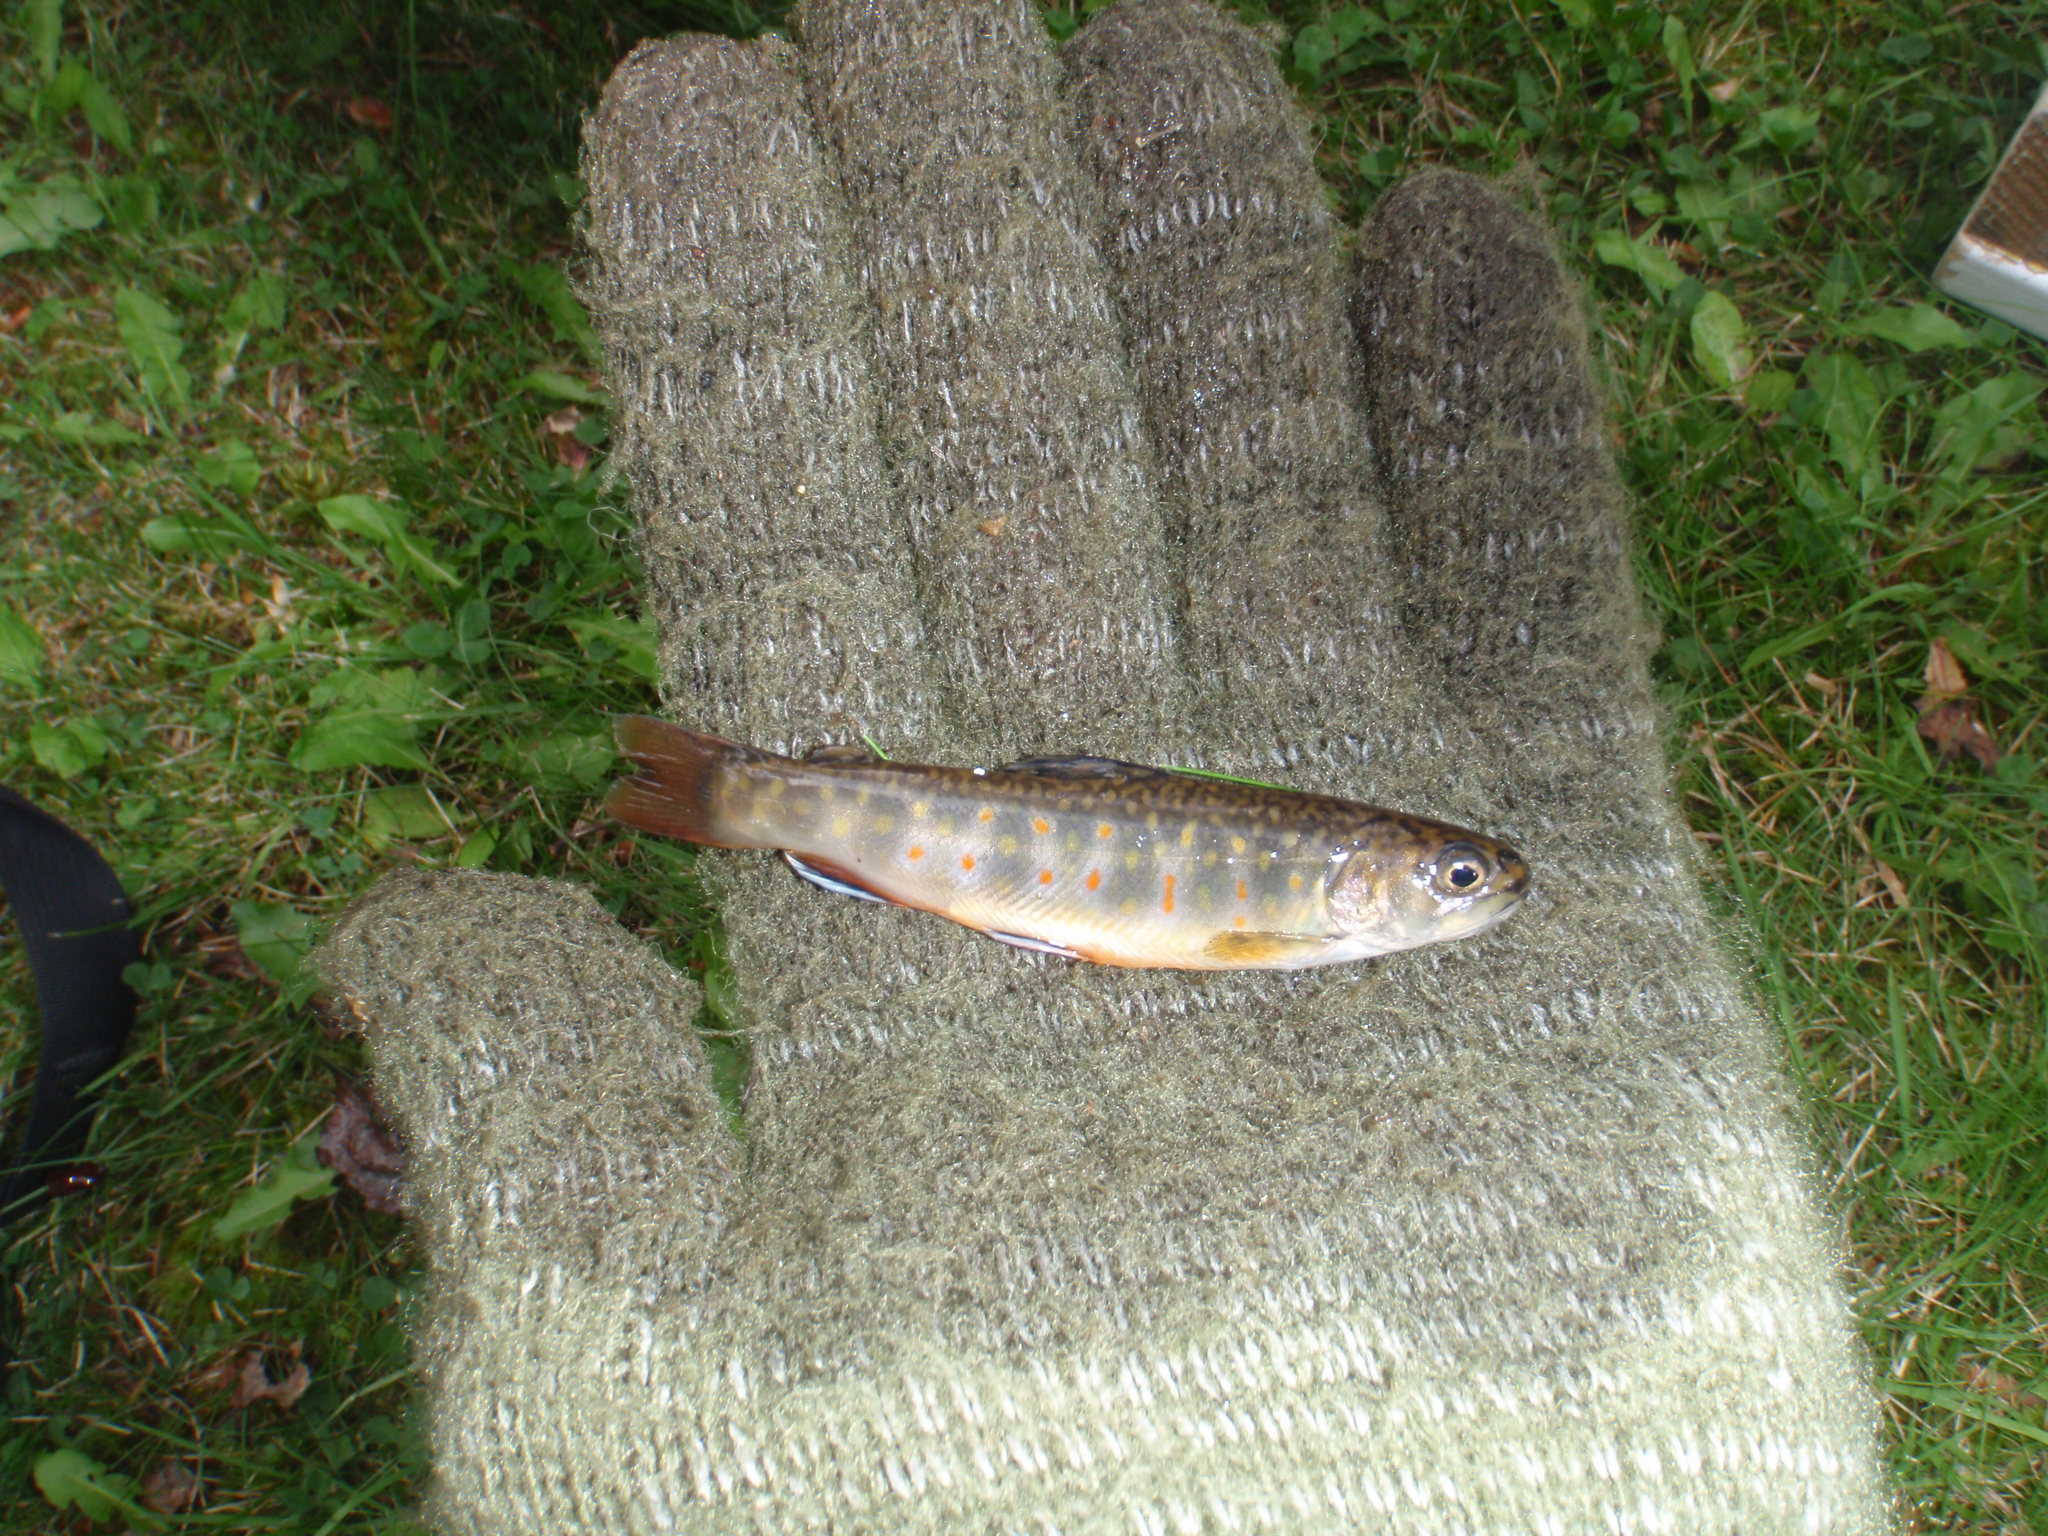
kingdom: Animalia
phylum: Chordata
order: Salmoniformes
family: Salmonidae
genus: Salvelinus
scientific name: Salvelinus fontinalis
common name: Brook trout
